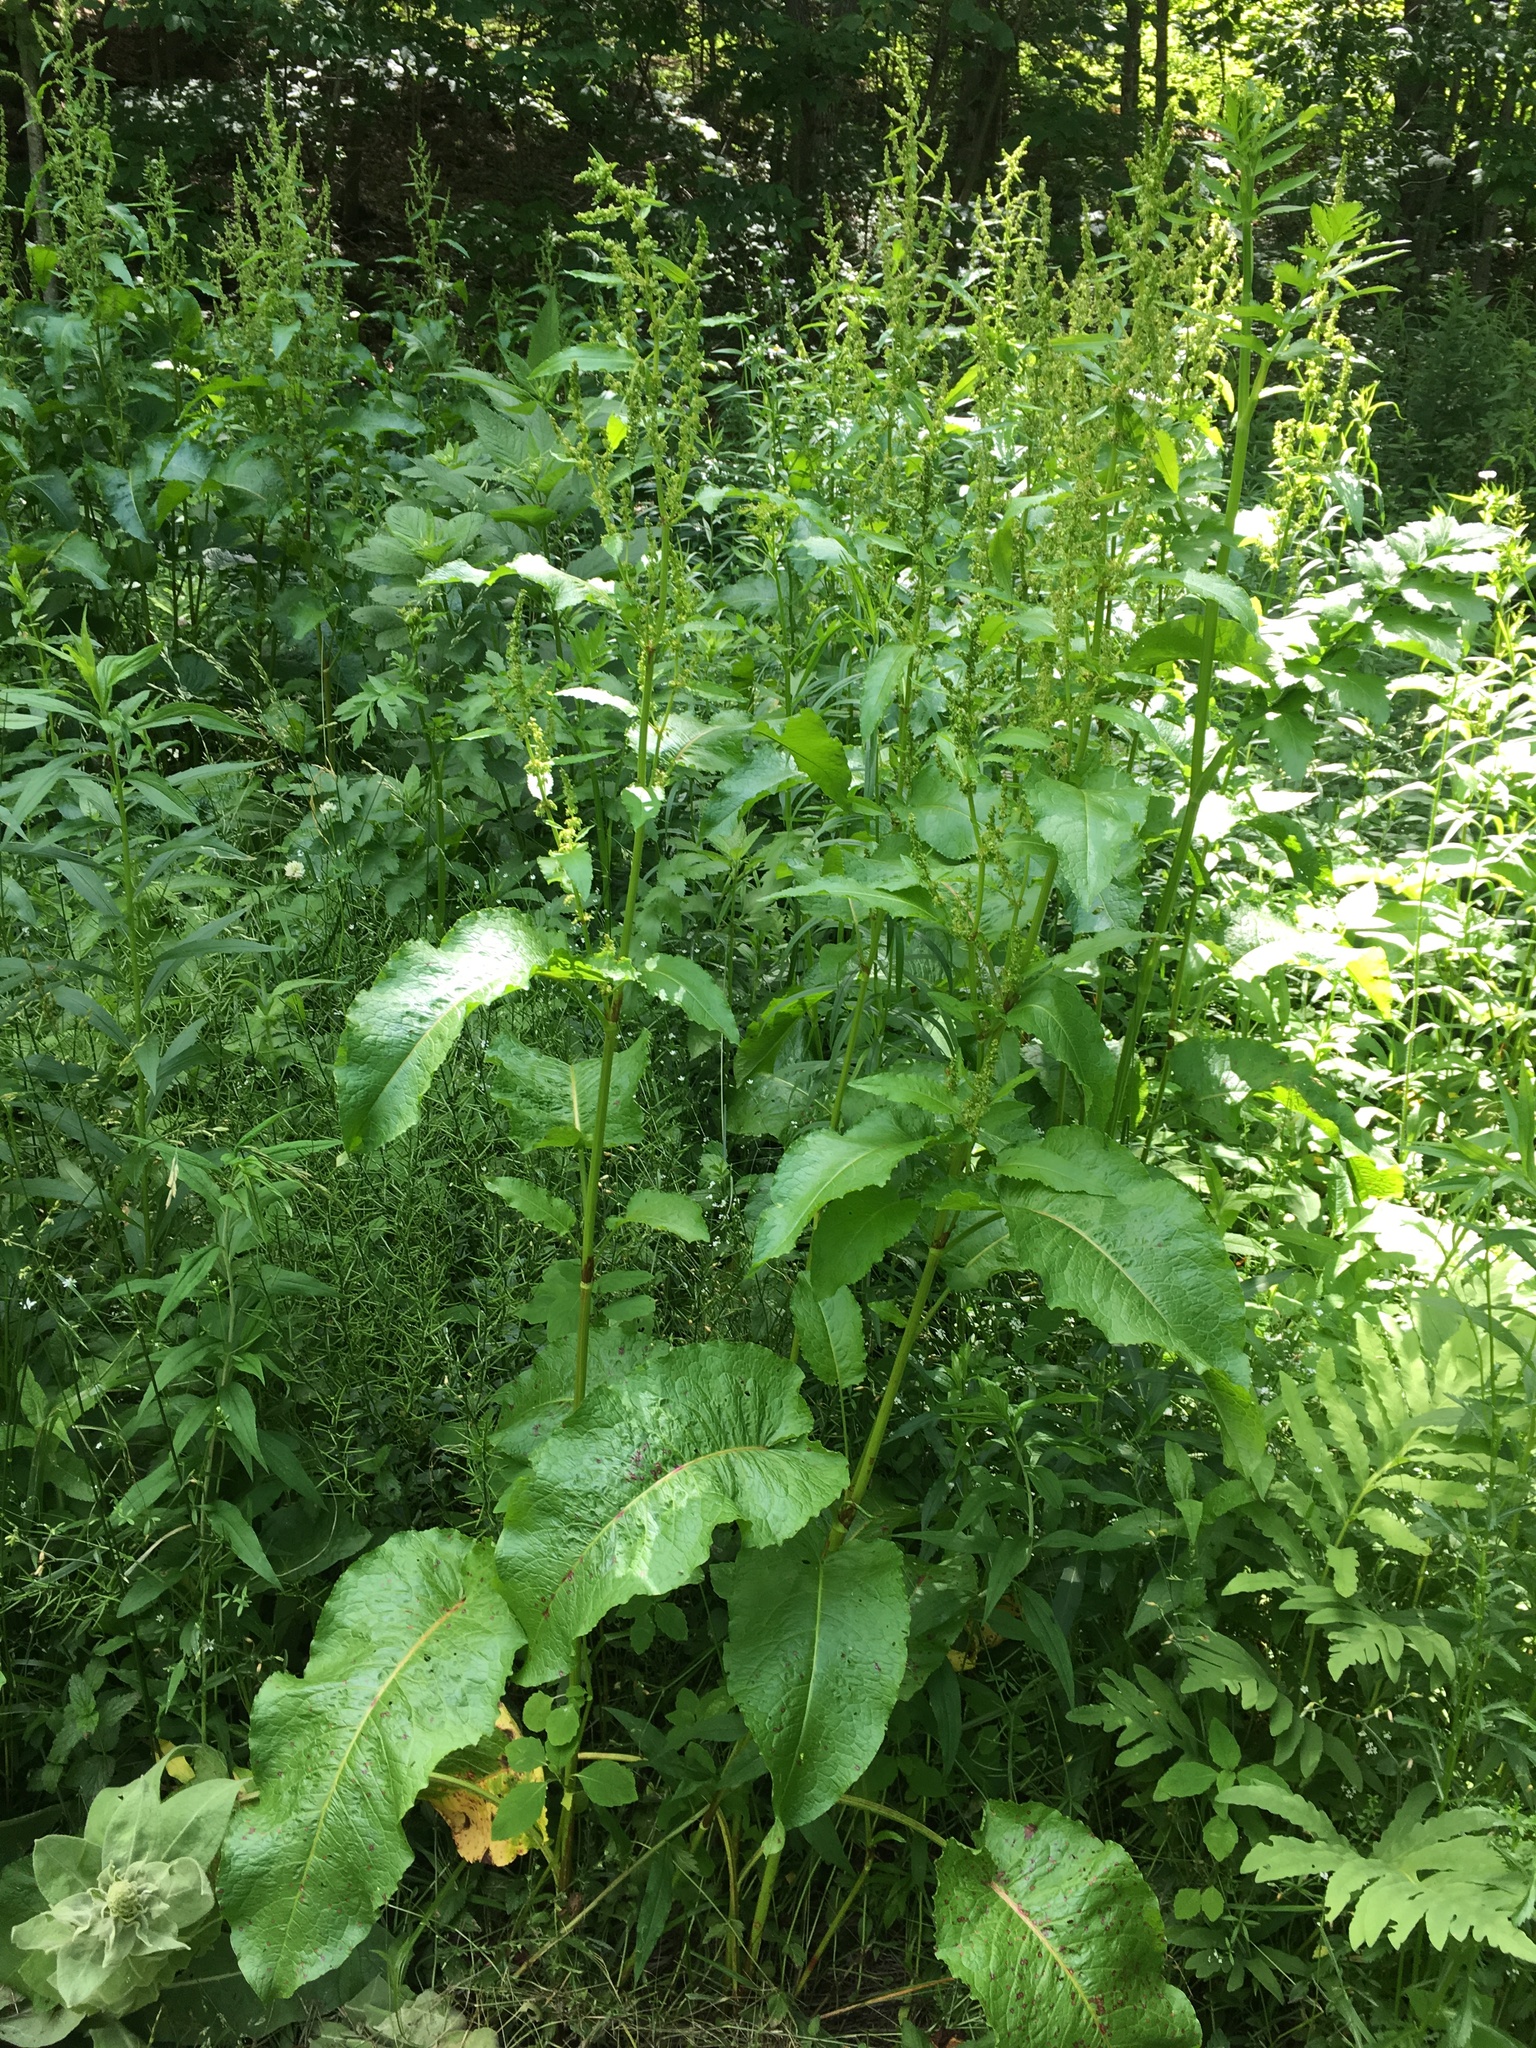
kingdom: Plantae
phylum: Tracheophyta
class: Magnoliopsida
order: Caryophyllales
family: Polygonaceae
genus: Rumex
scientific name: Rumex obtusifolius
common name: Bitter dock
